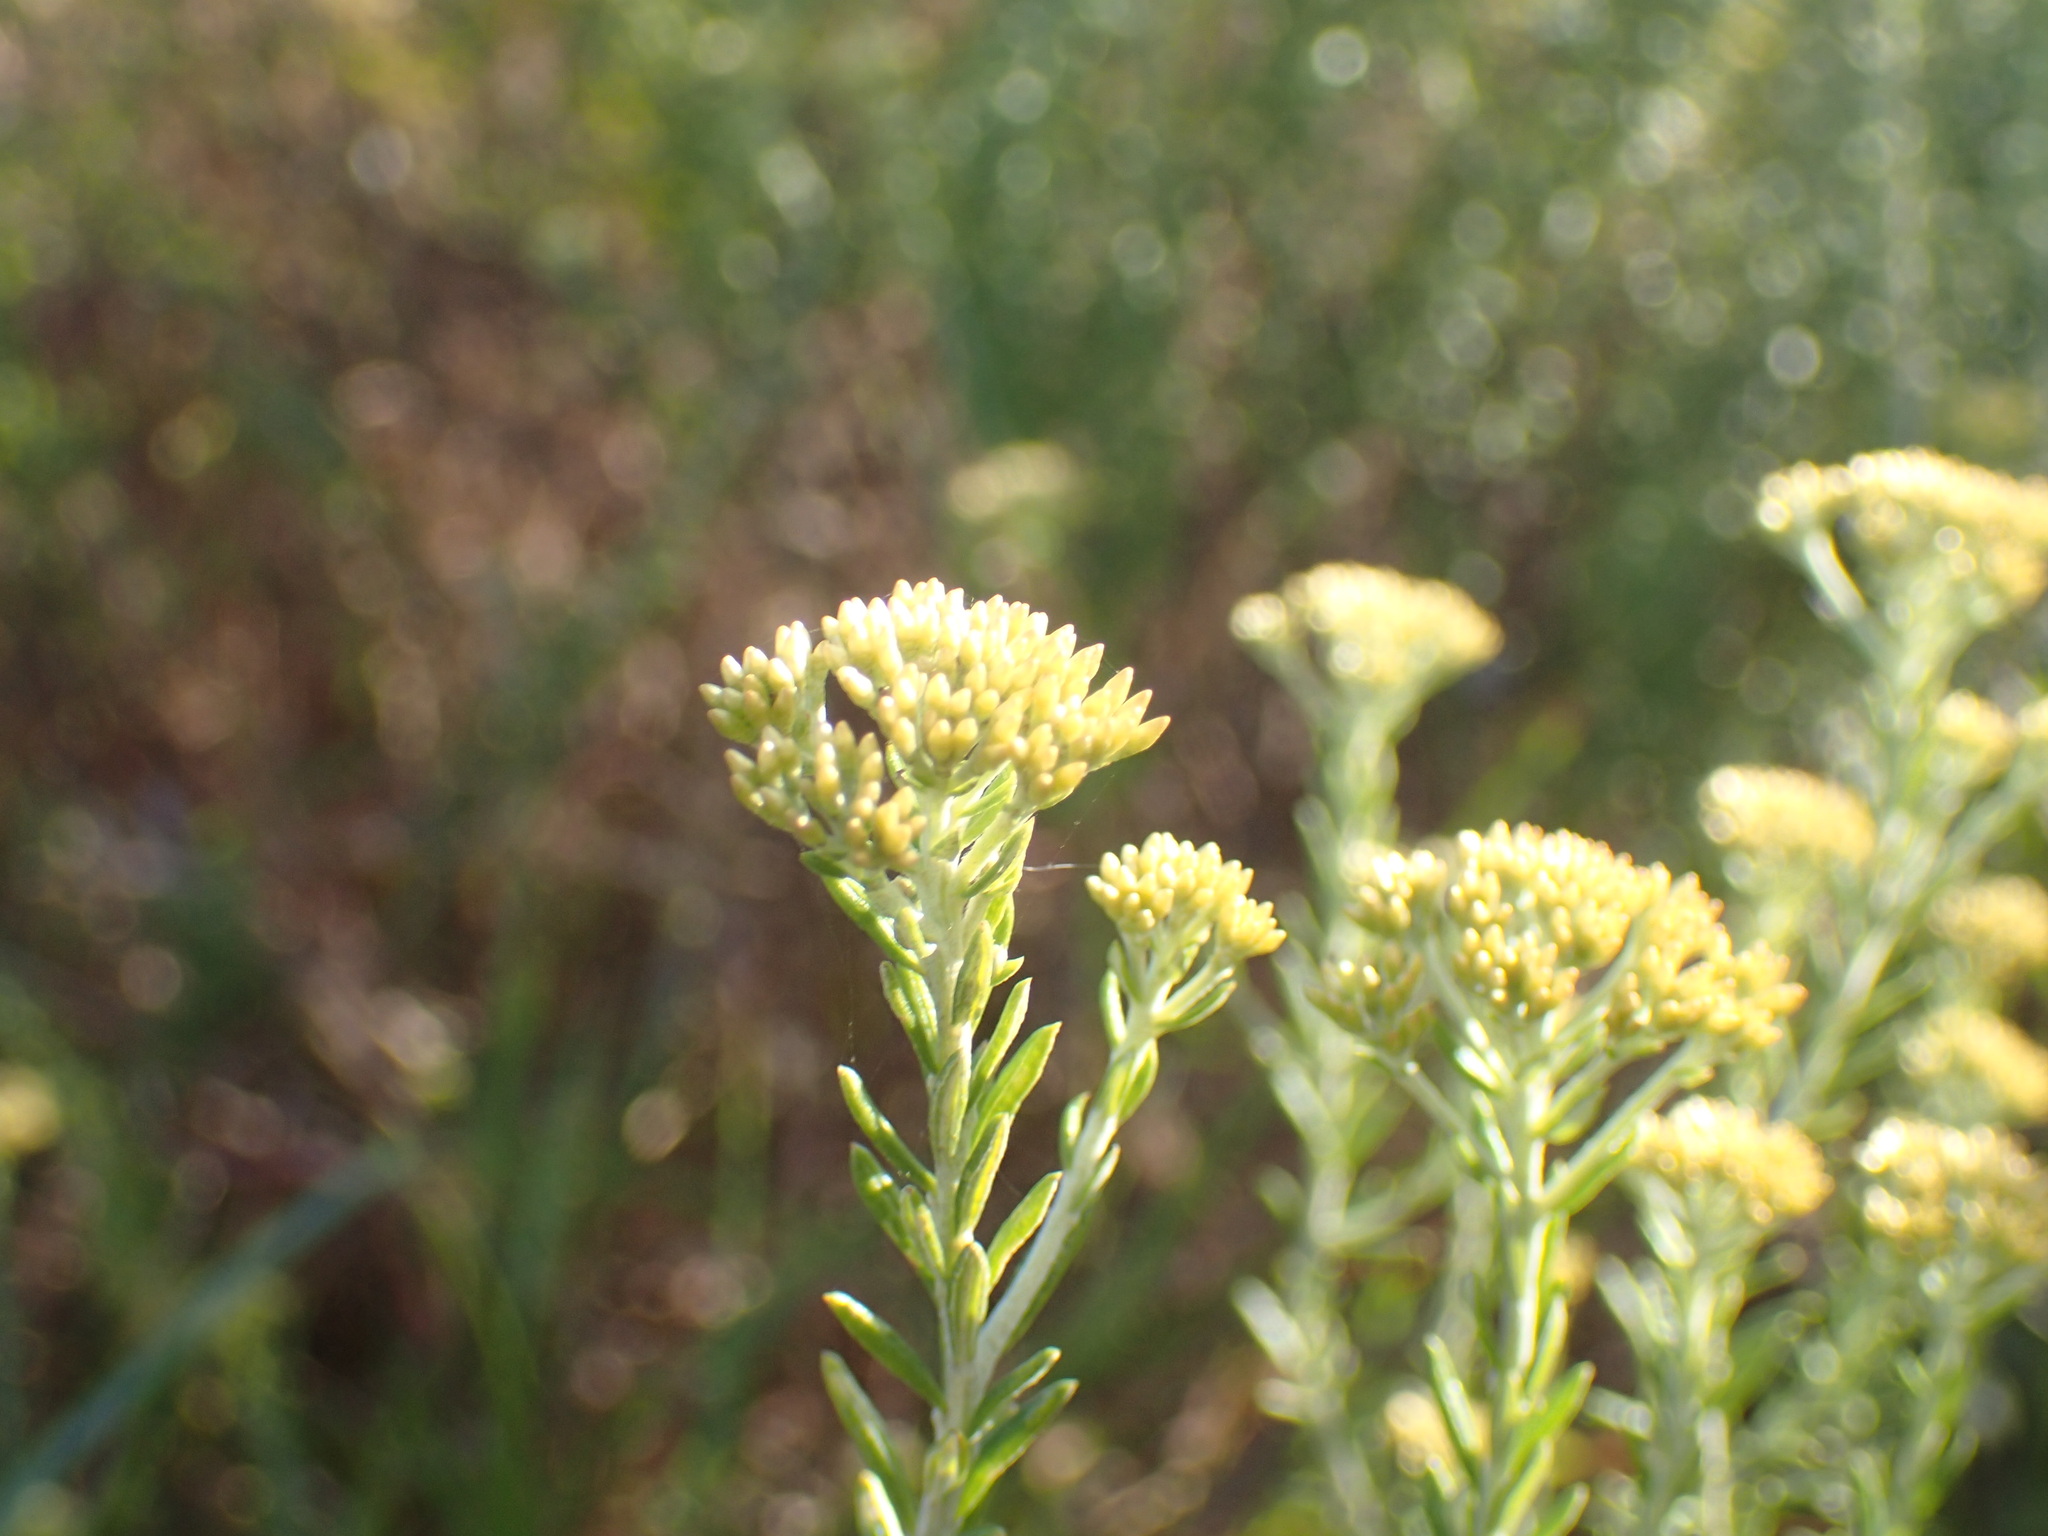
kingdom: Plantae
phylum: Tracheophyta
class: Magnoliopsida
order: Asterales
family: Asteraceae
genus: Helichrysum
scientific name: Helichrysum kraussii
